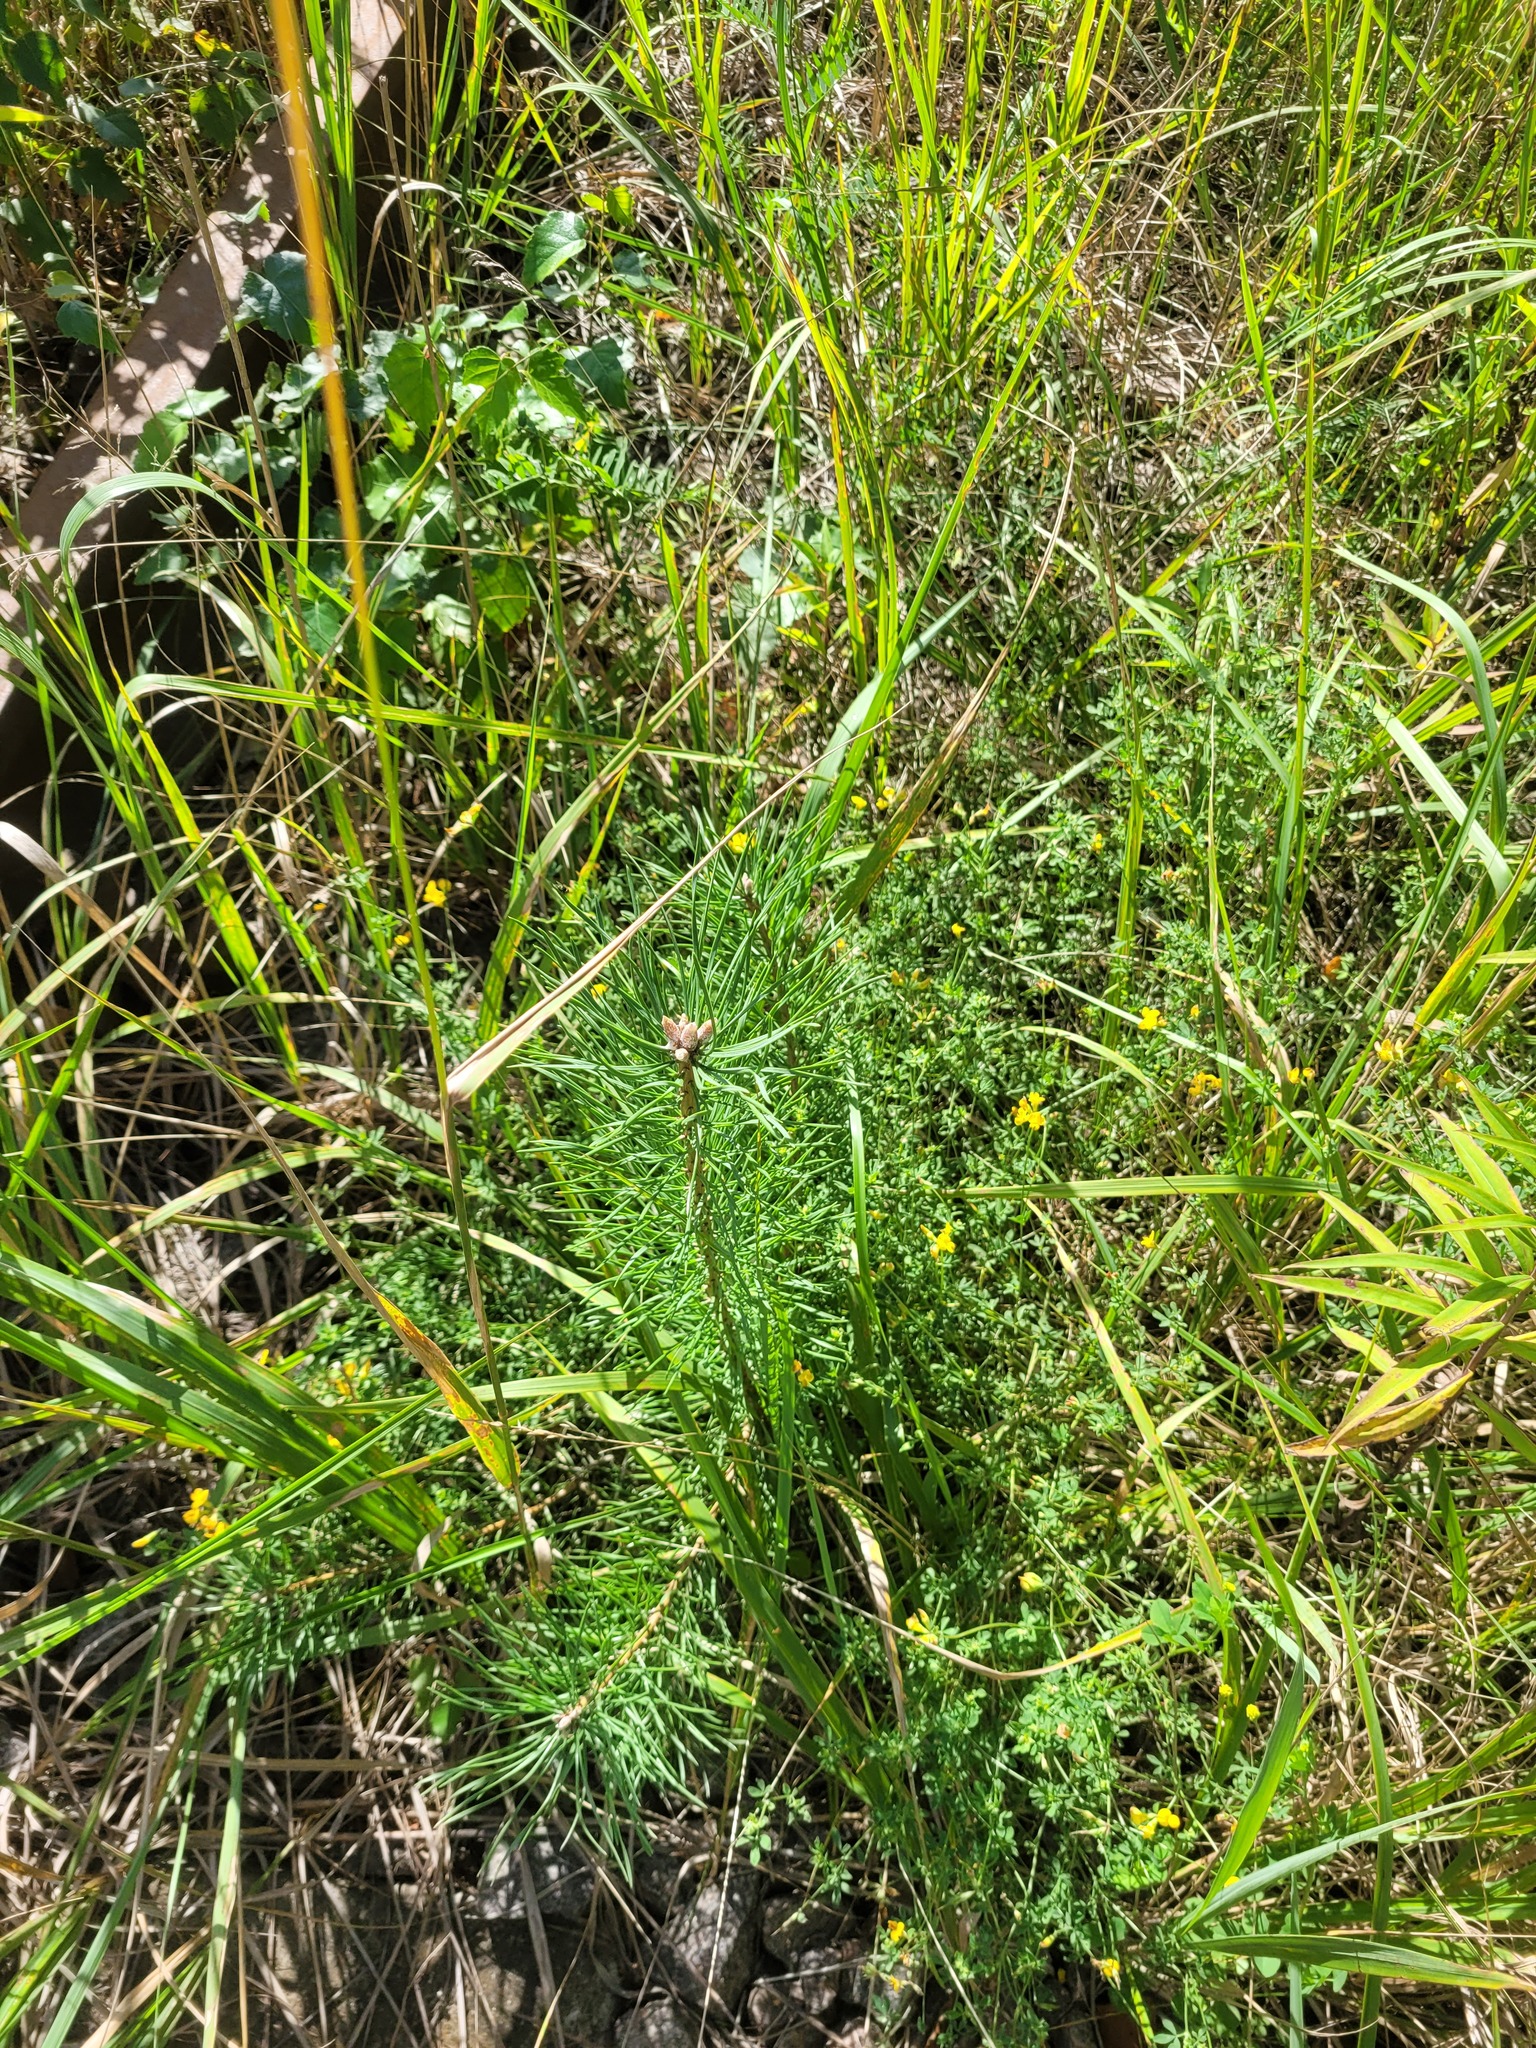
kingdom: Plantae
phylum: Tracheophyta
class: Pinopsida
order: Pinales
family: Pinaceae
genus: Pinus
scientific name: Pinus sylvestris
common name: Scots pine
